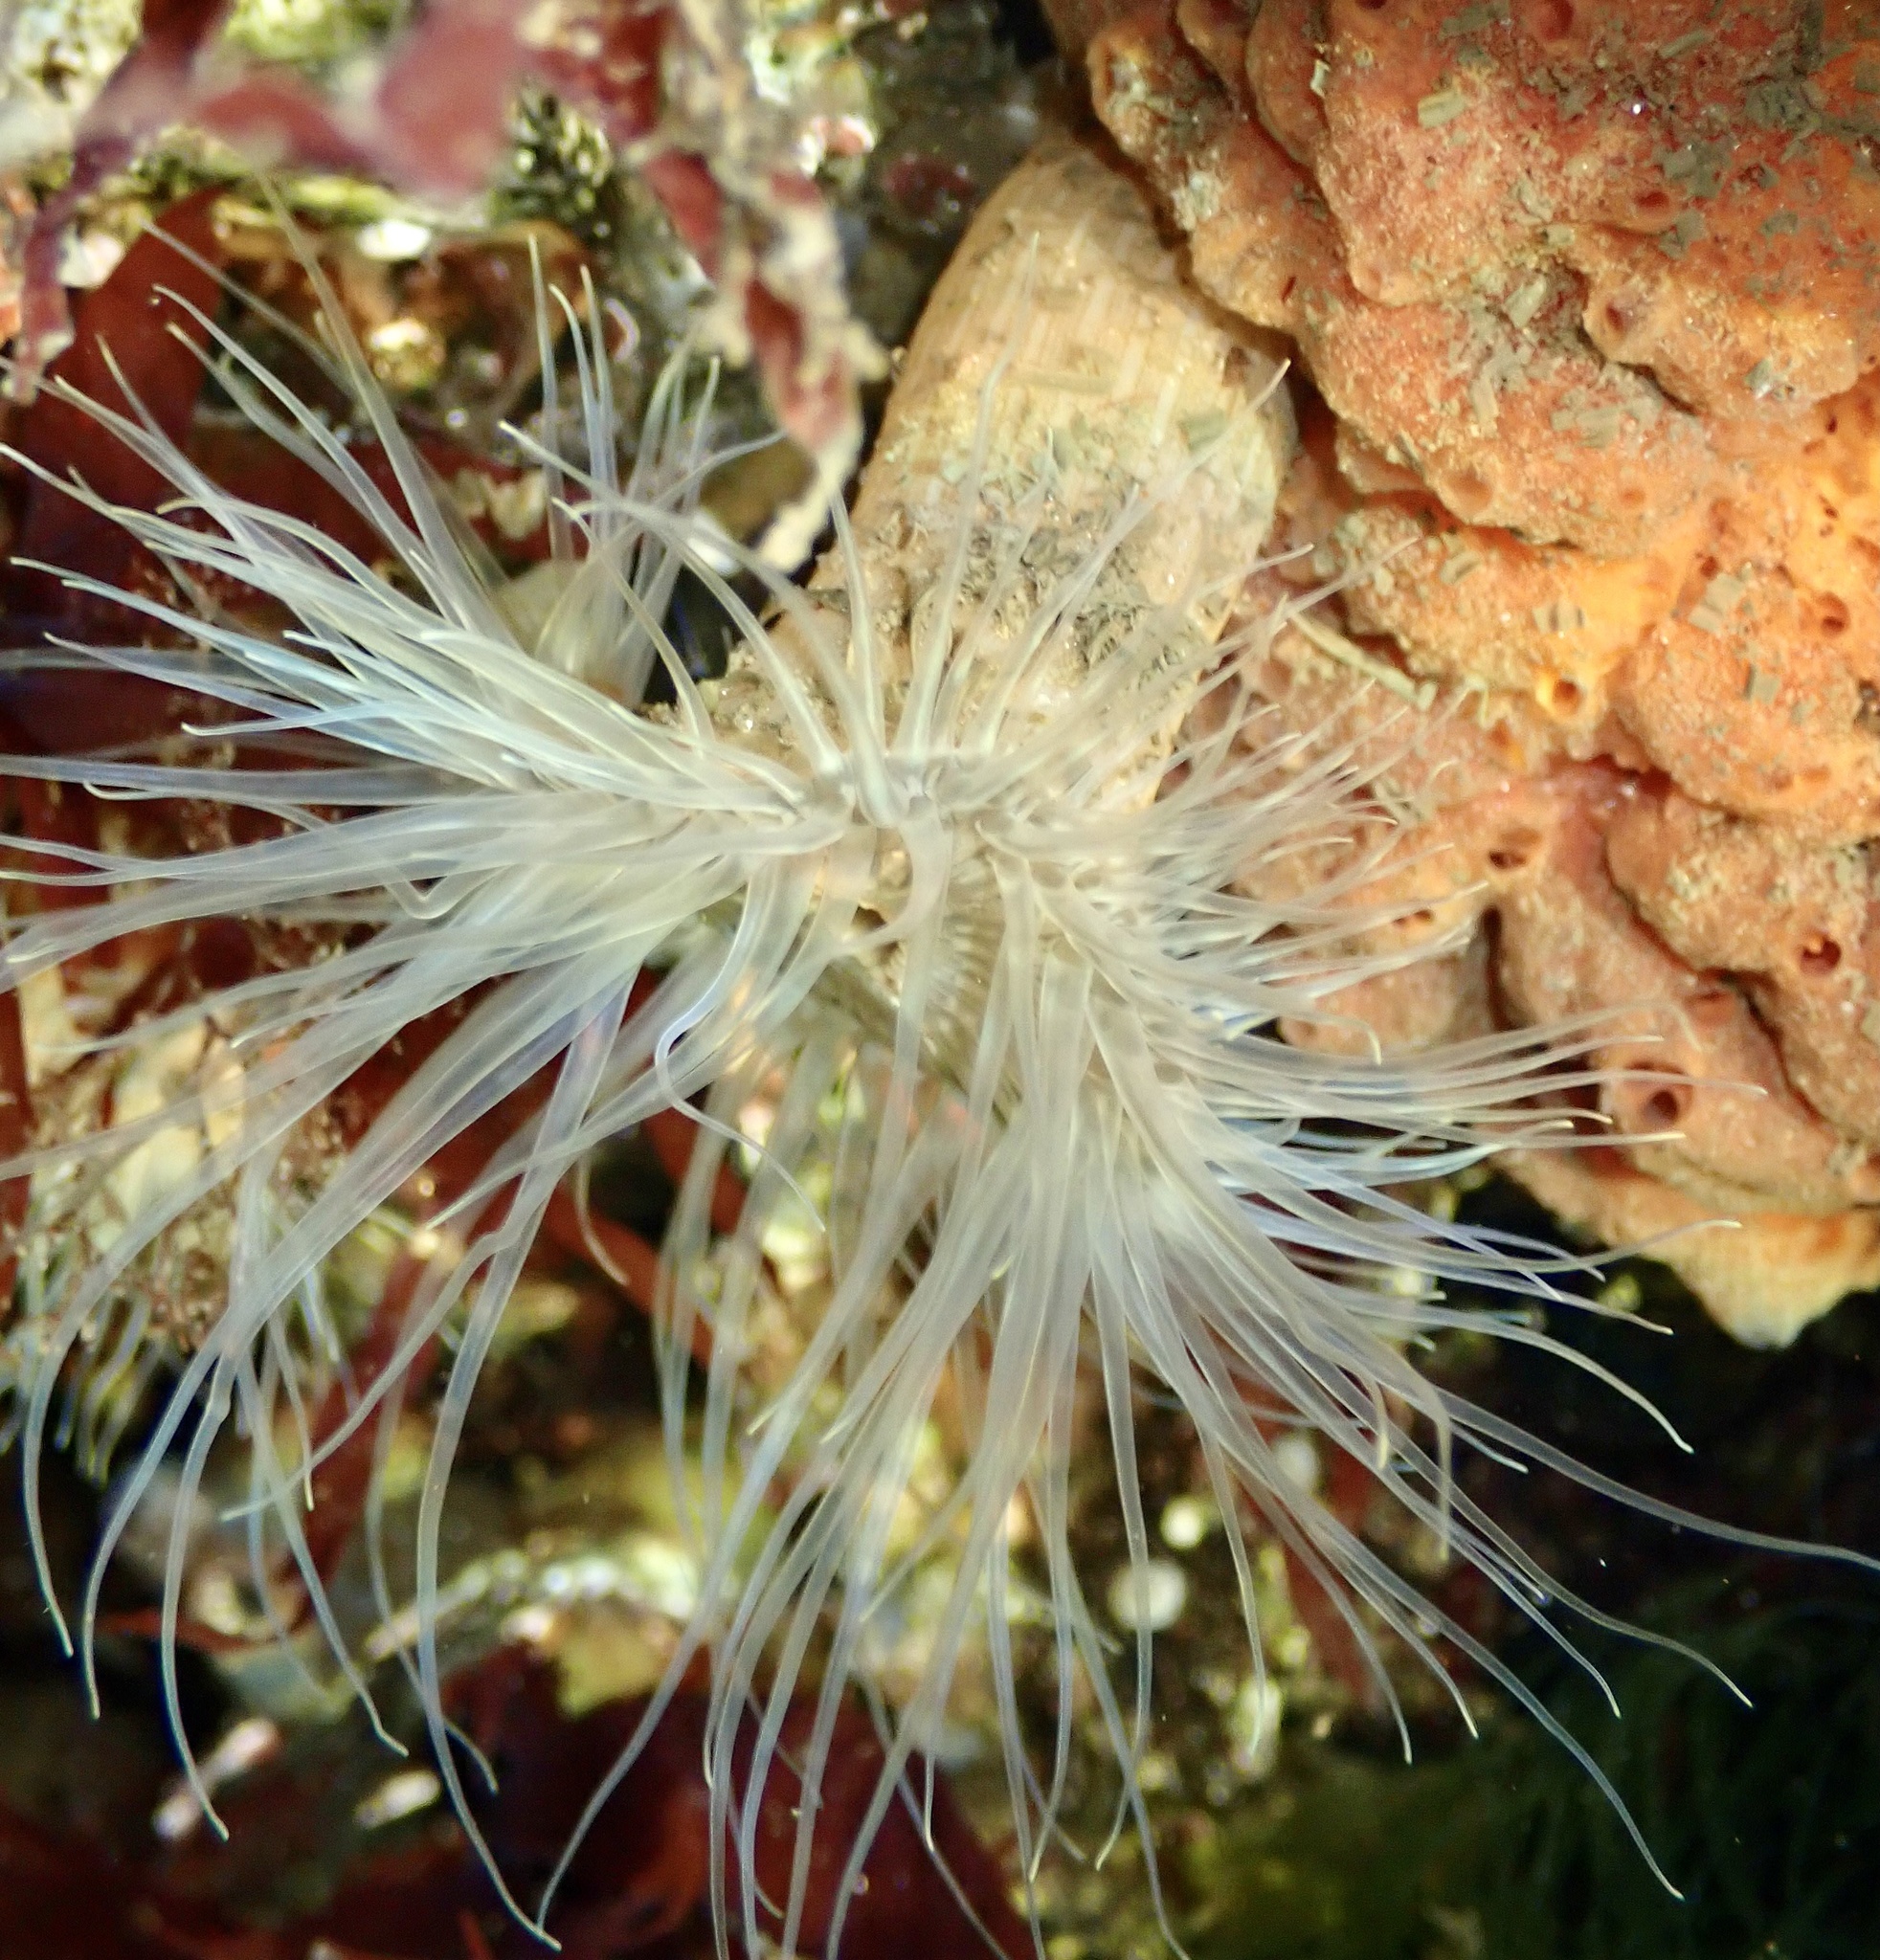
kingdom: Animalia
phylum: Cnidaria
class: Anthozoa
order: Actiniaria
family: Sagartiidae
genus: Sagartia
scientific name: Sagartia undata
